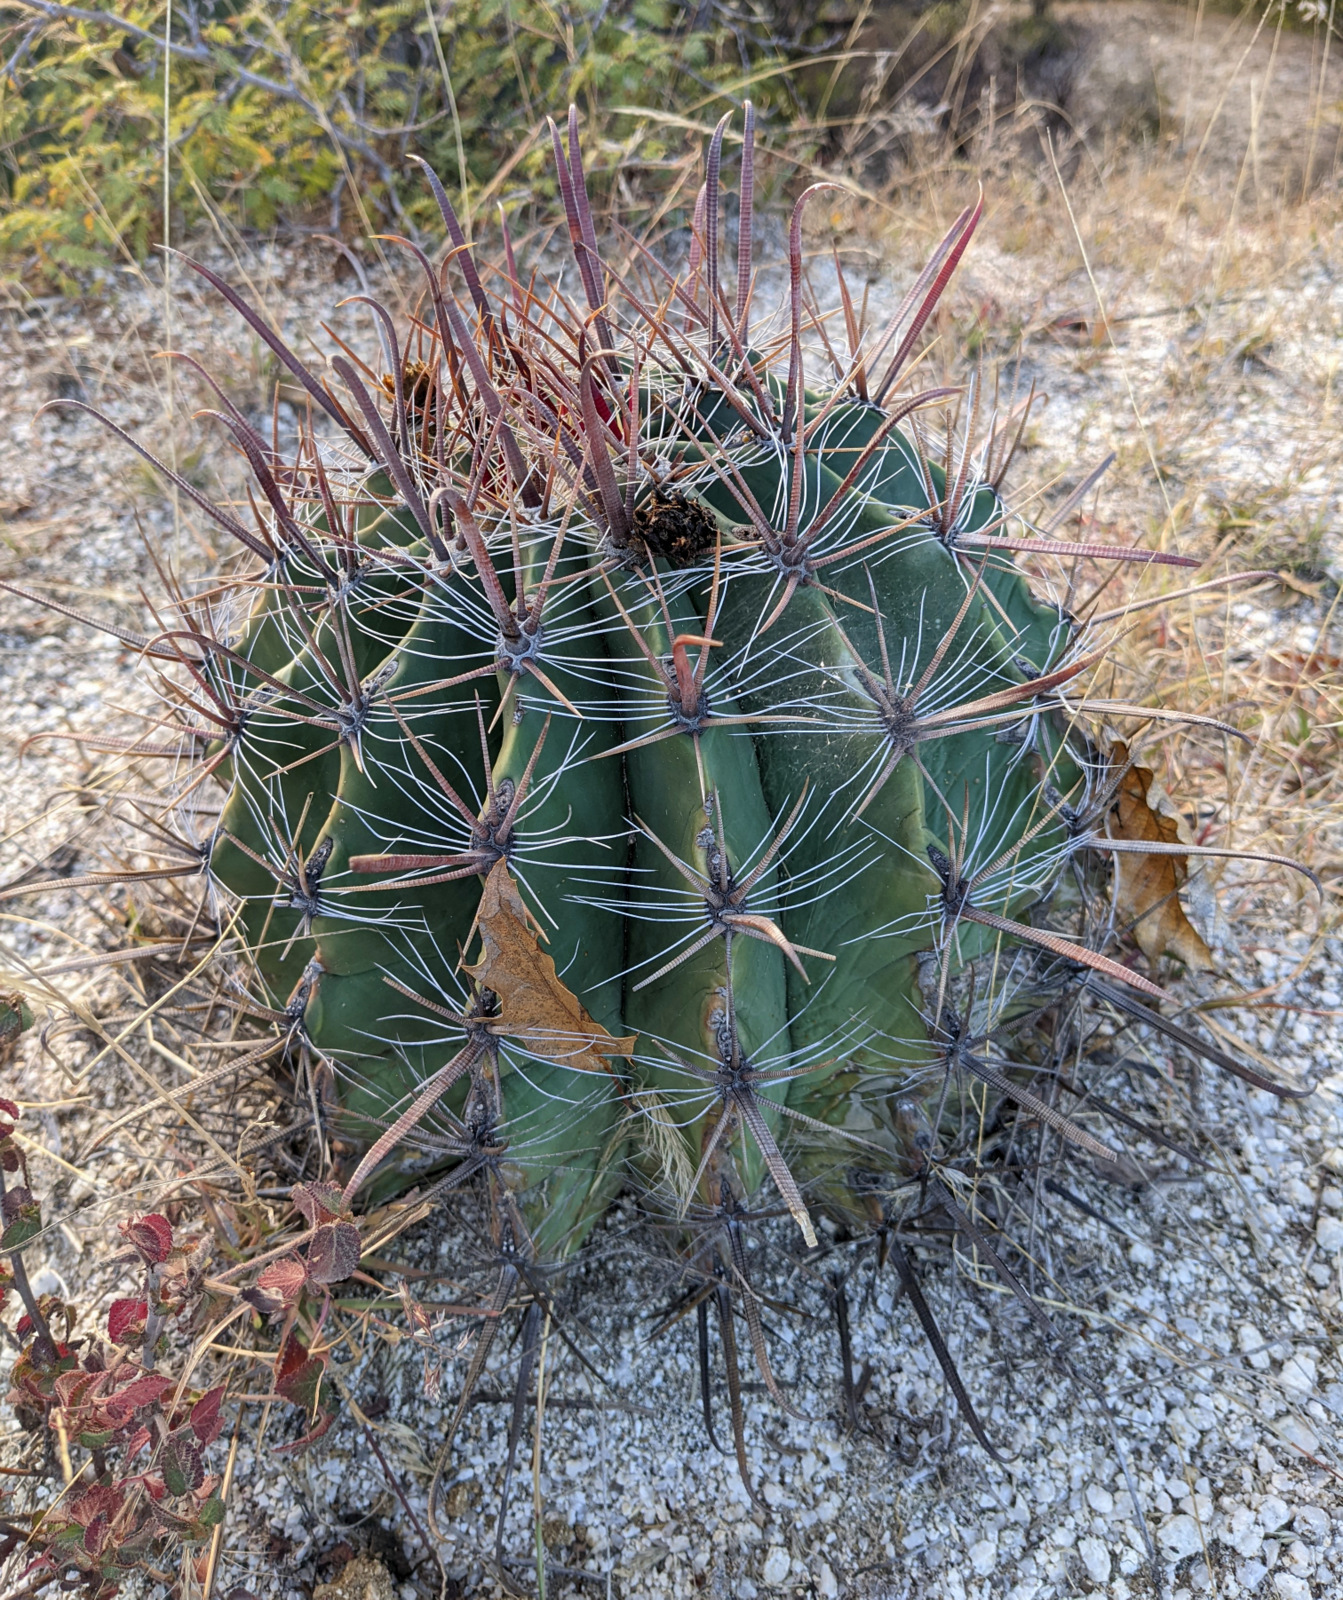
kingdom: Plantae
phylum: Tracheophyta
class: Magnoliopsida
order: Caryophyllales
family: Cactaceae
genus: Ferocactus
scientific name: Ferocactus townsendianus
